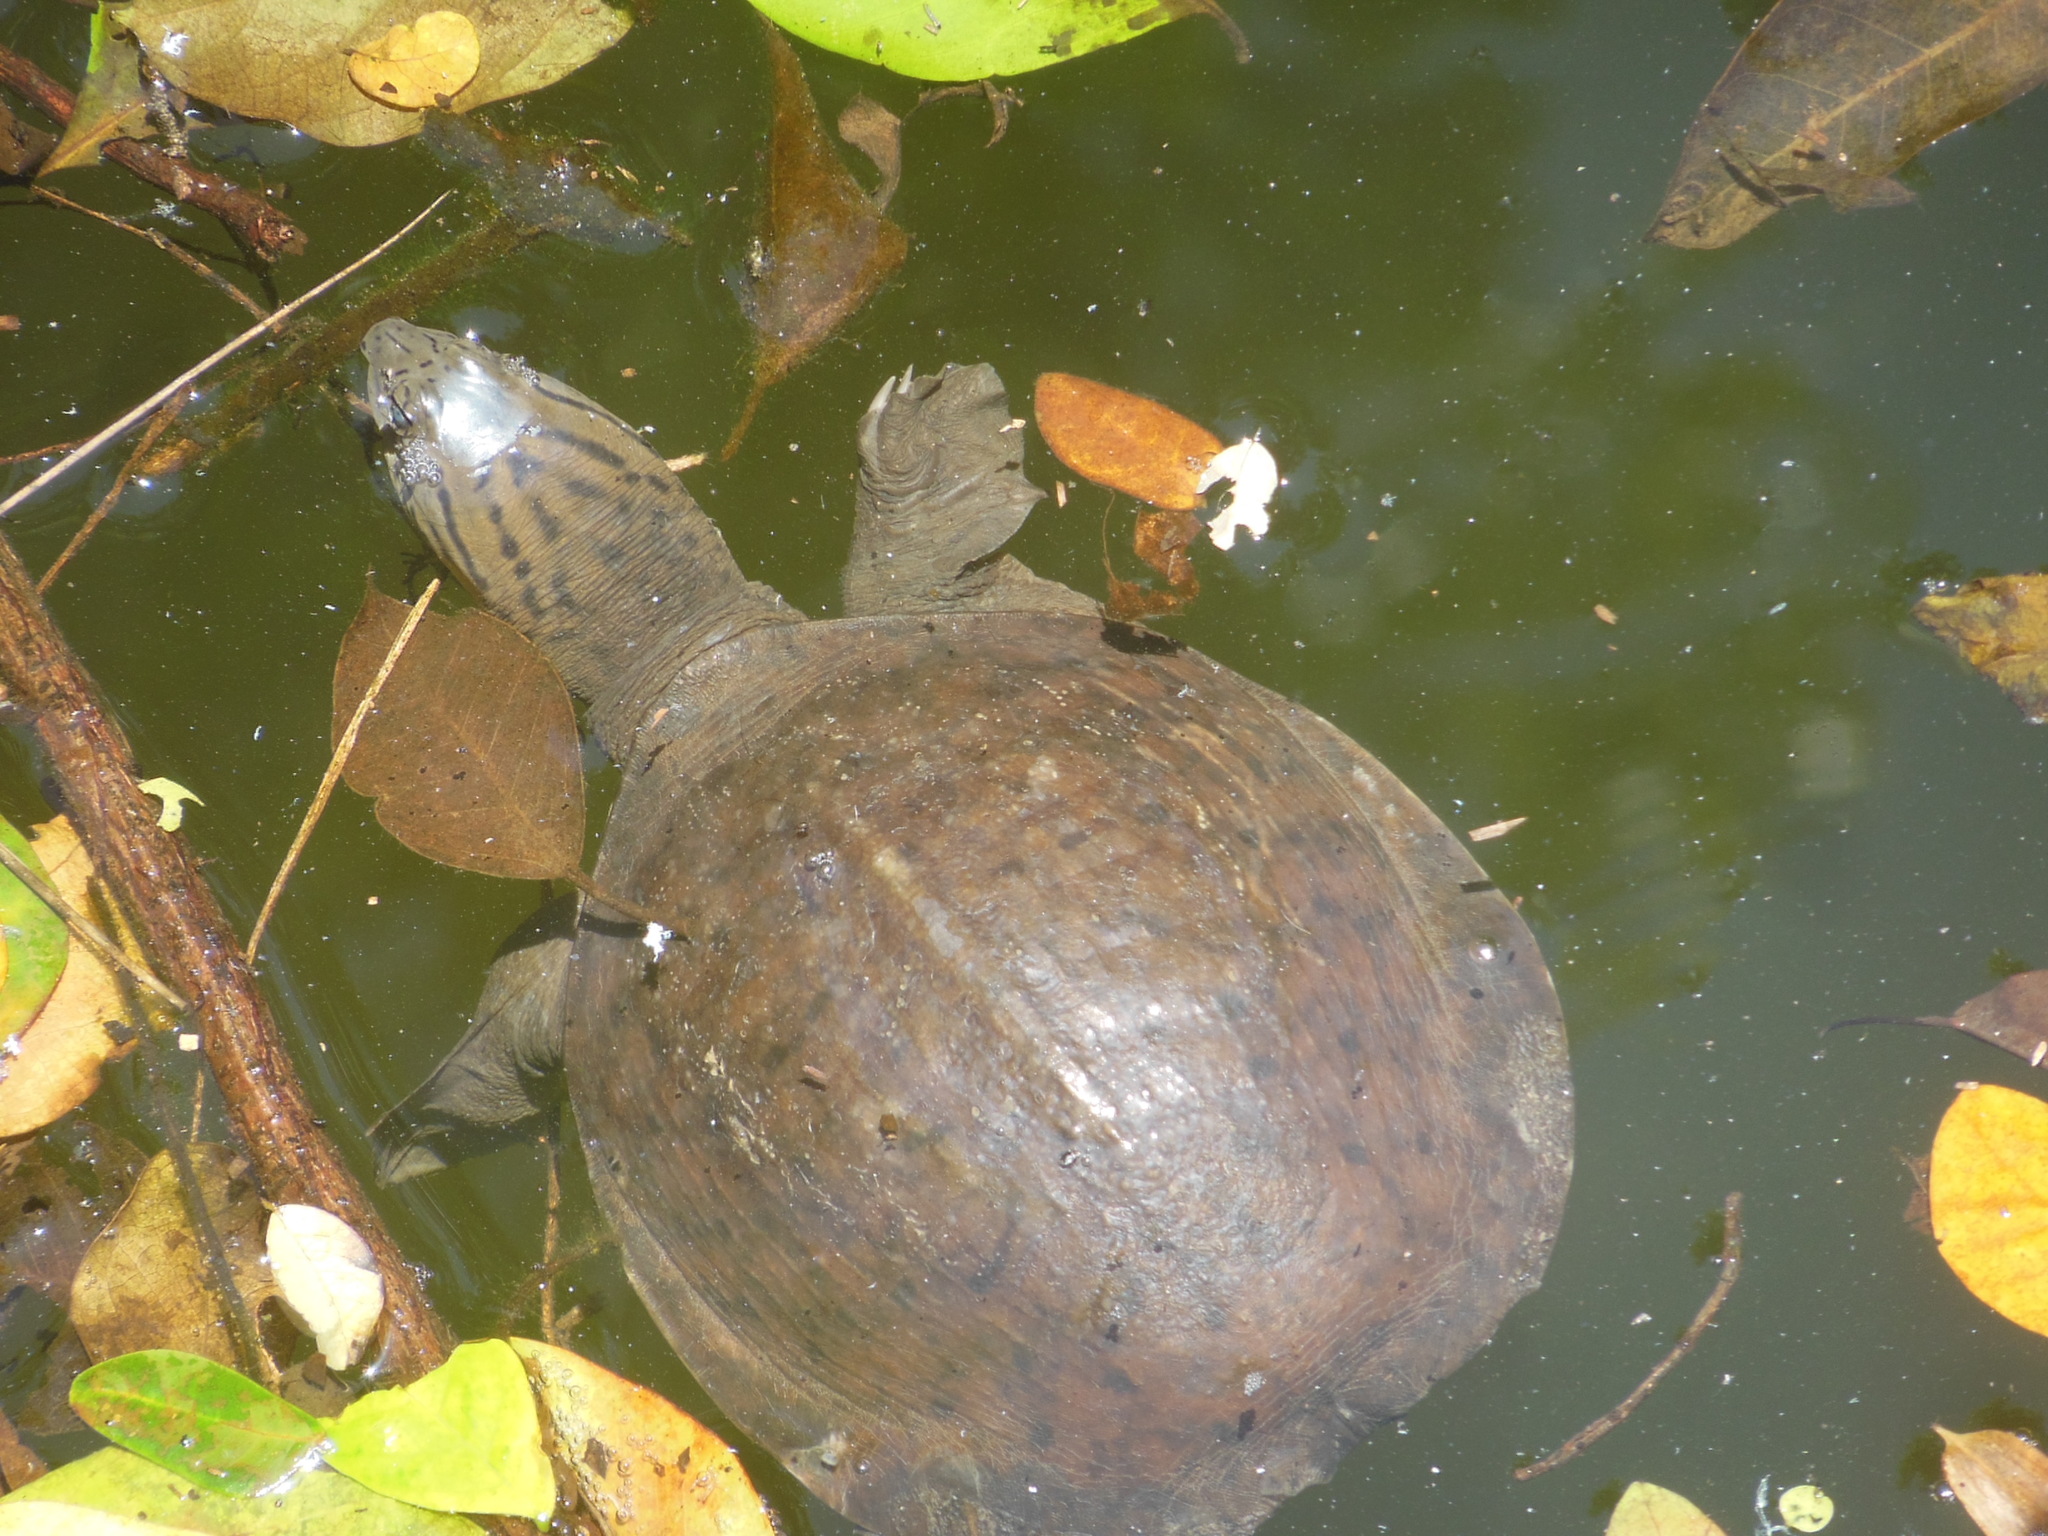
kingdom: Animalia
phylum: Chordata
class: Testudines
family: Trionychidae
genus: Lissemys
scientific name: Lissemys punctata
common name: Indian flap-shelled turtle
